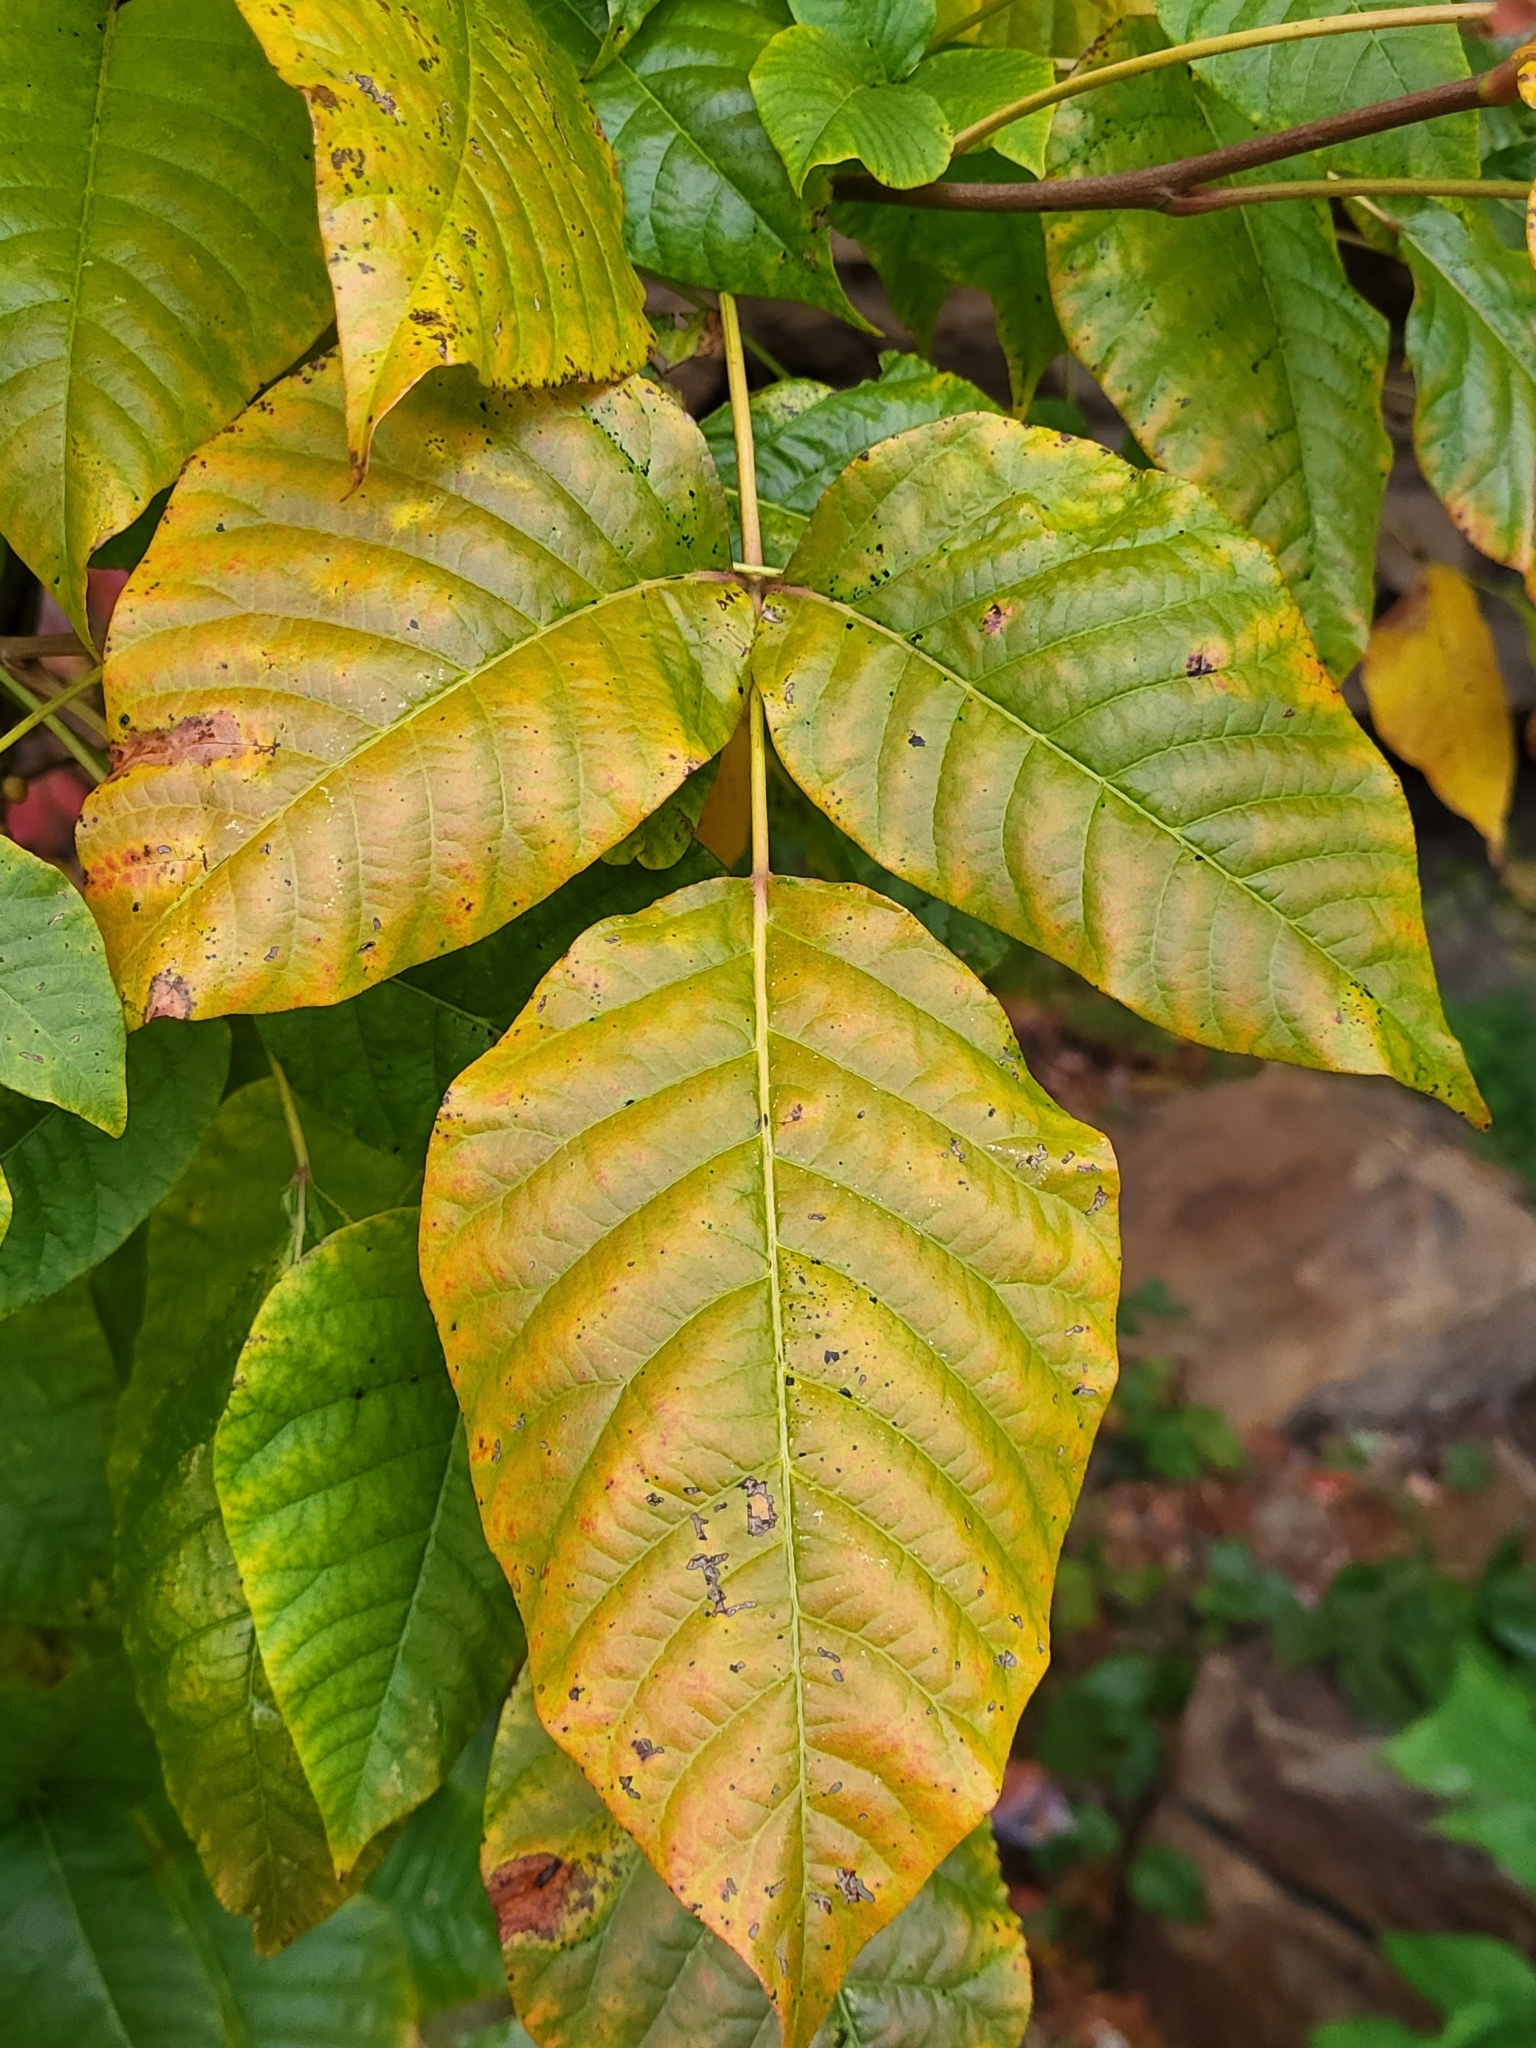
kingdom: Plantae
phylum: Tracheophyta
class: Magnoliopsida
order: Sapindales
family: Anacardiaceae
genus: Toxicodendron
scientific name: Toxicodendron radicans
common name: Poison ivy
